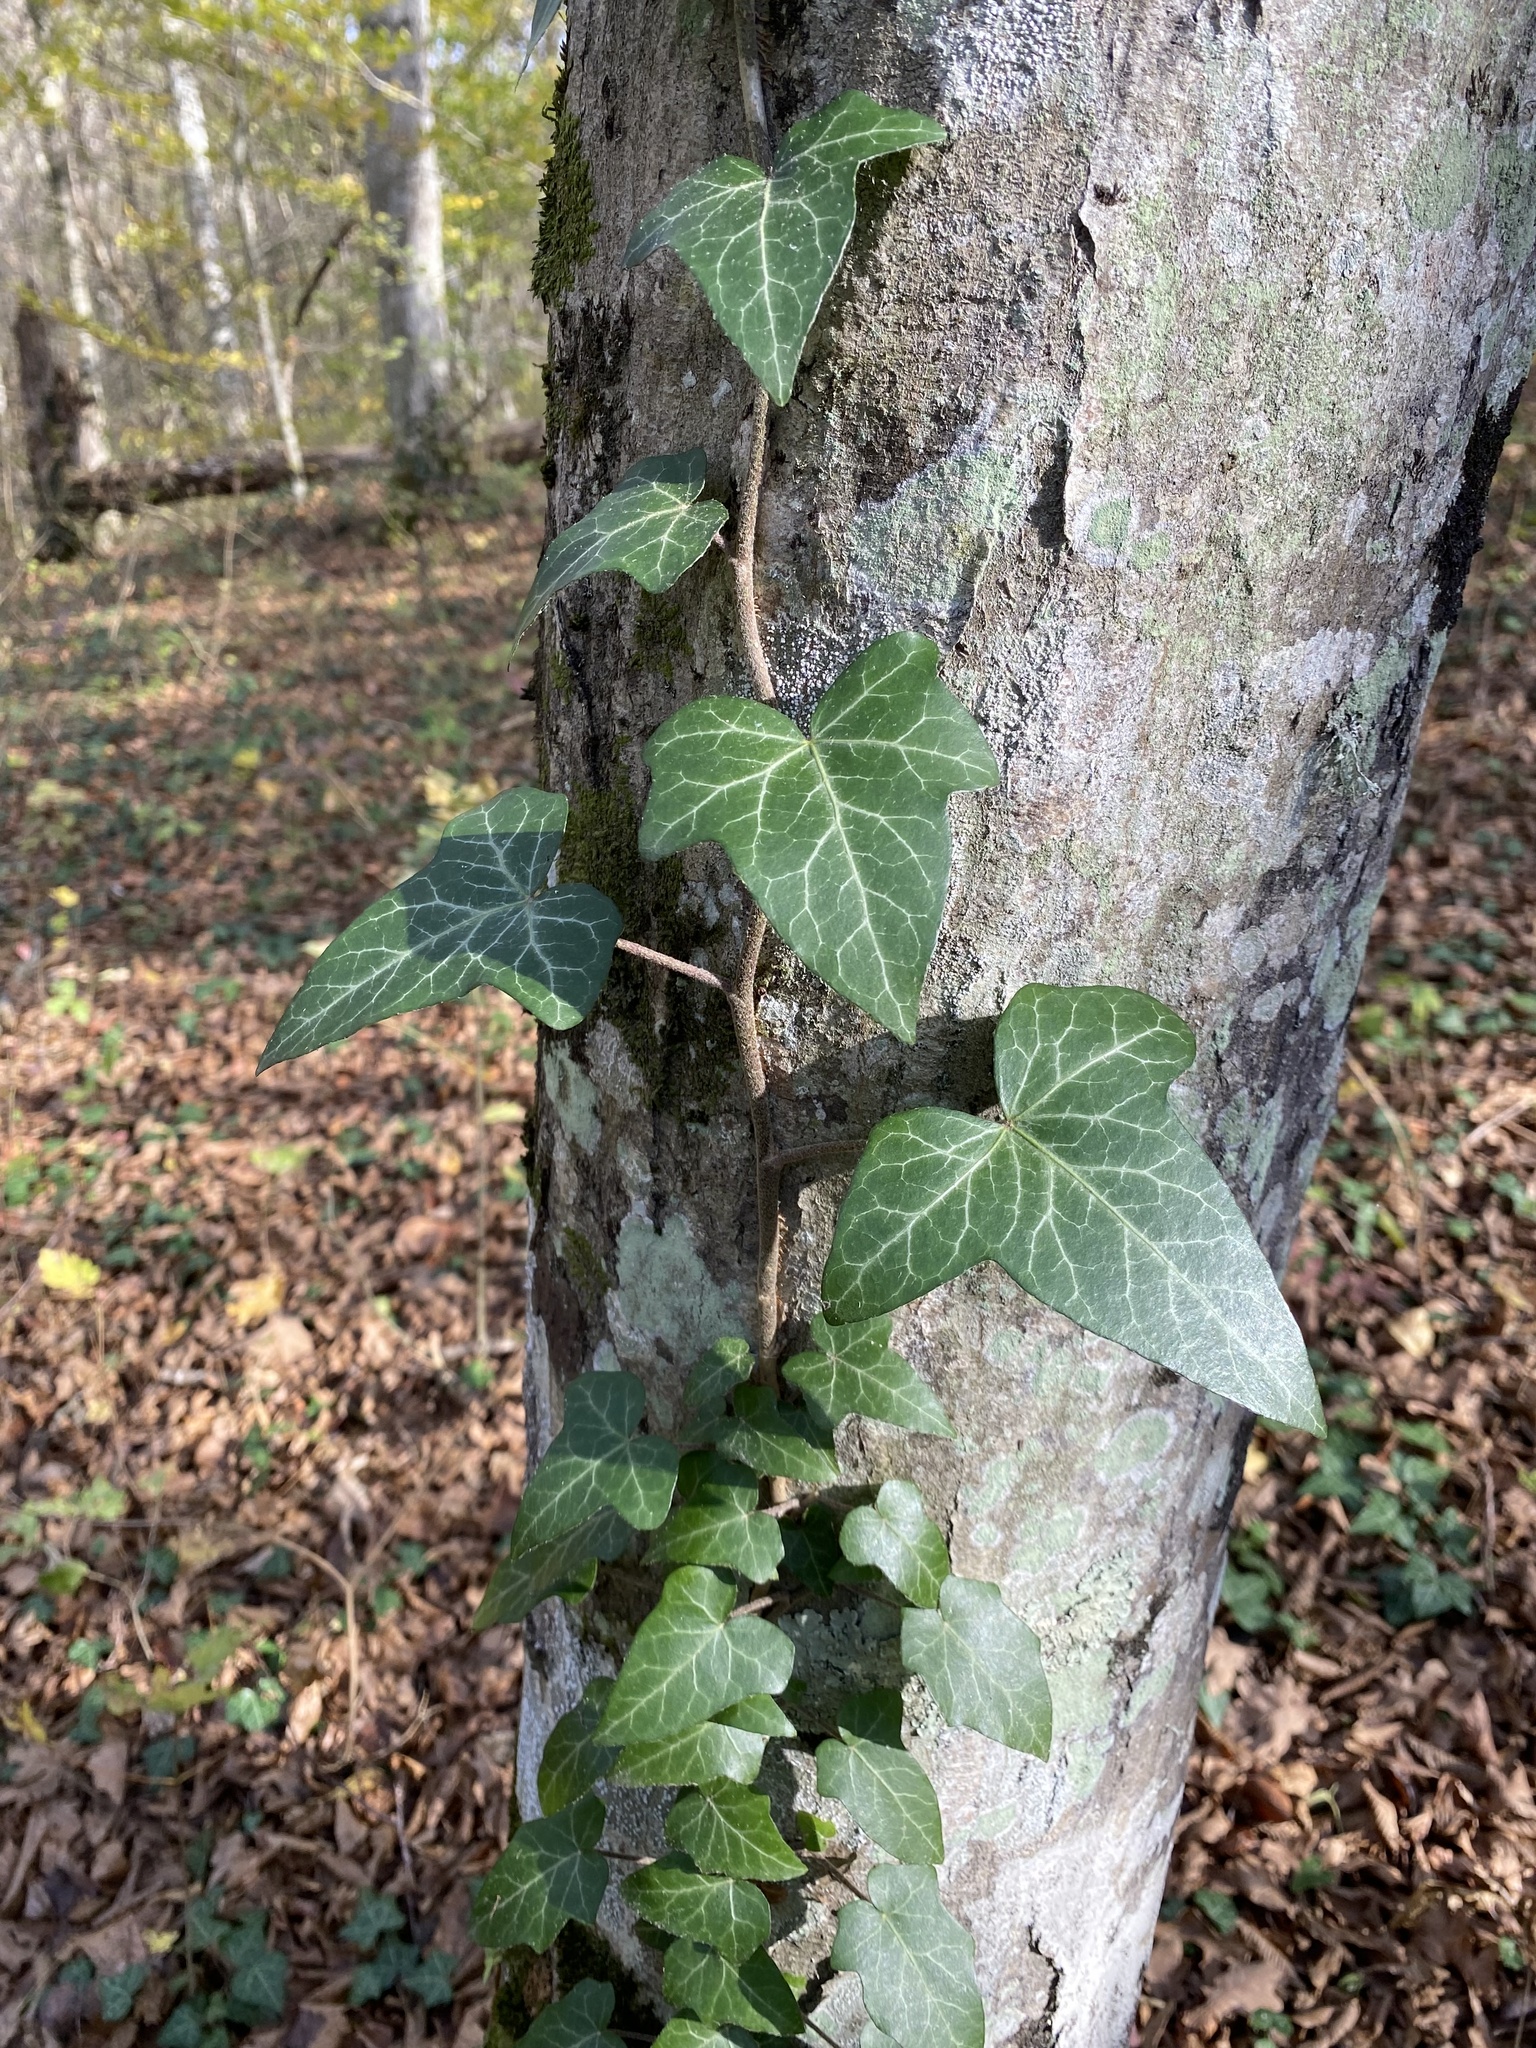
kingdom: Plantae
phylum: Tracheophyta
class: Magnoliopsida
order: Apiales
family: Araliaceae
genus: Hedera
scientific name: Hedera helix
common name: Ivy
